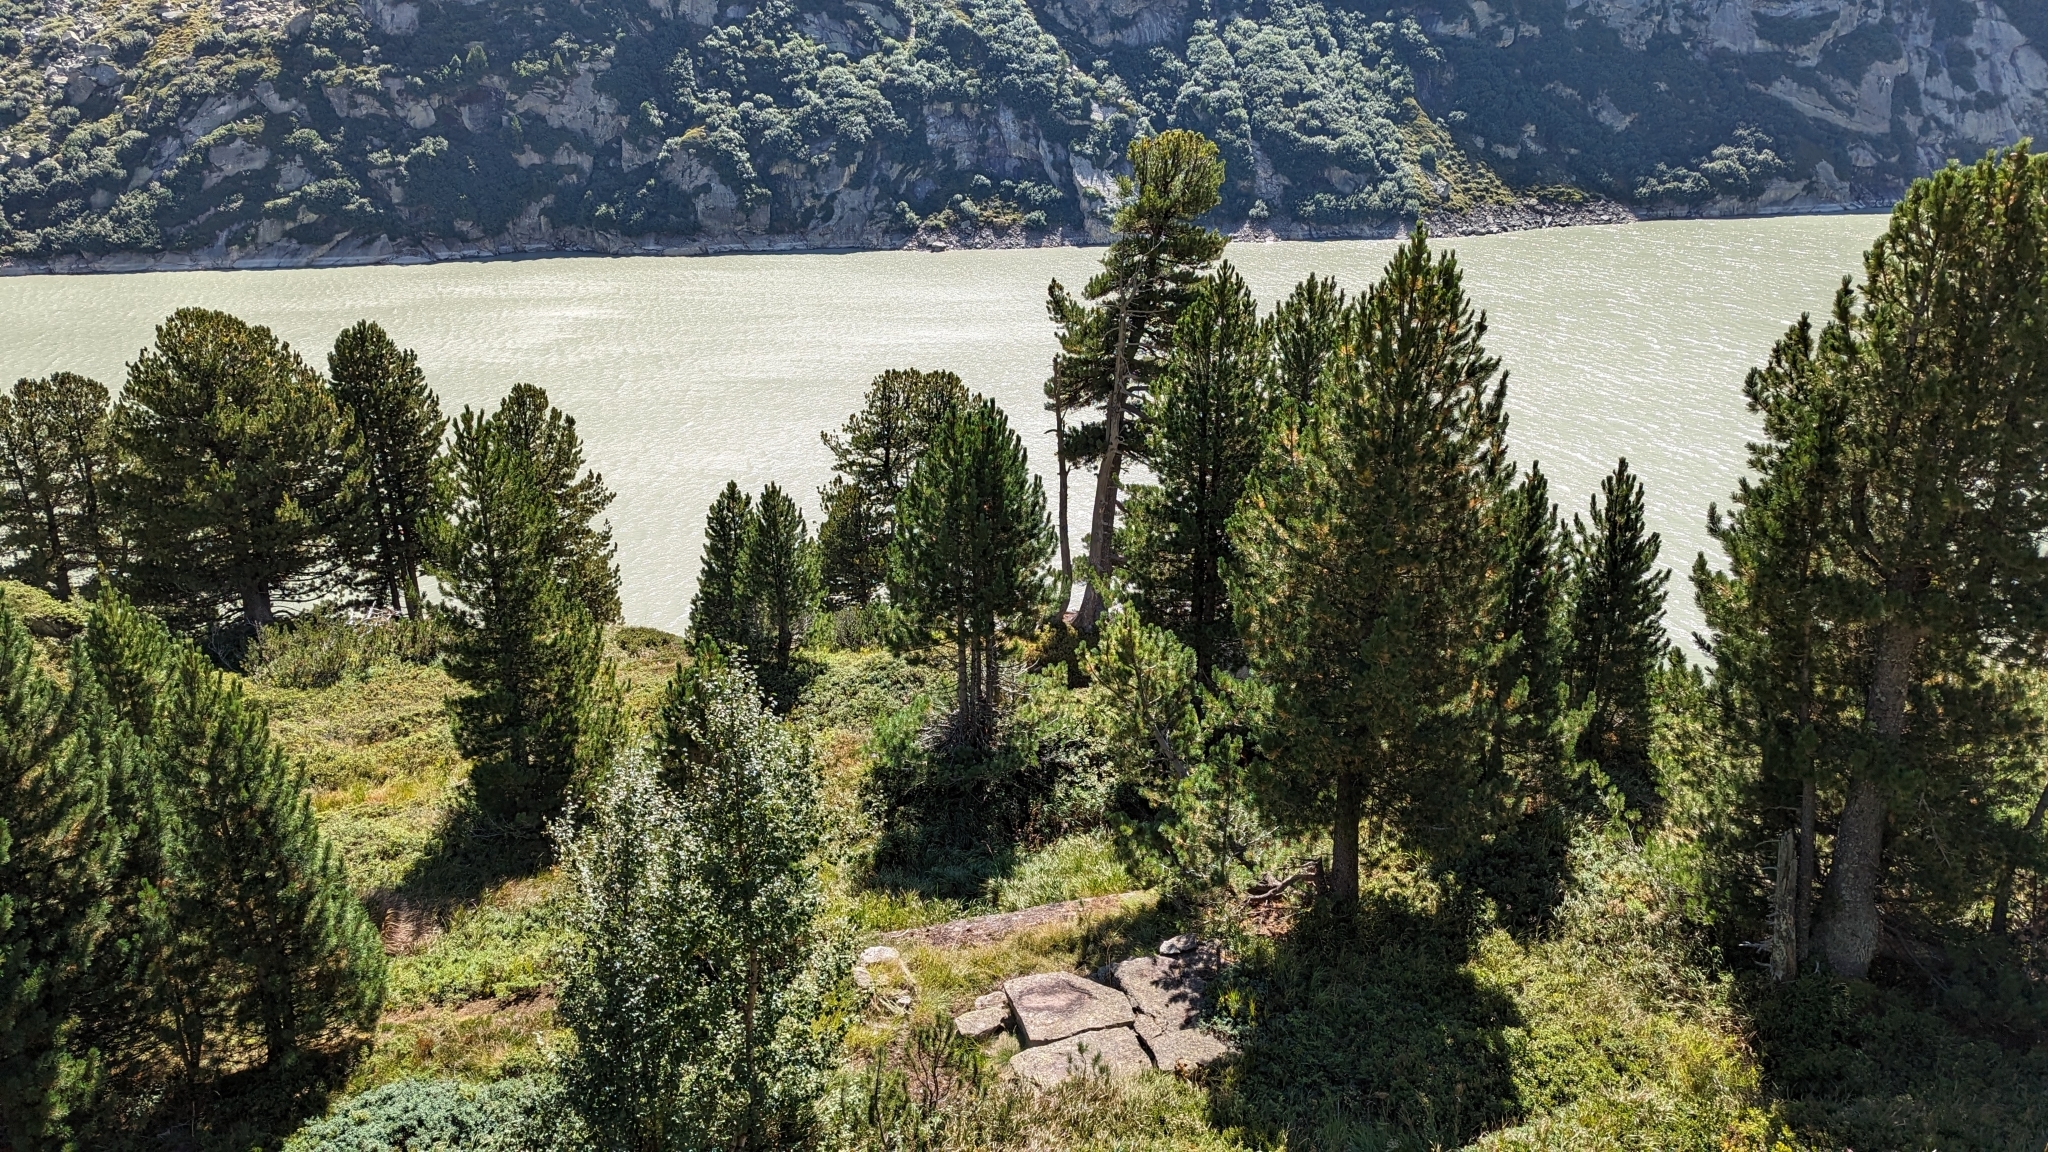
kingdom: Plantae
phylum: Tracheophyta
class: Pinopsida
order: Pinales
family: Cupressaceae
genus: Juniperus
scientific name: Juniperus communis
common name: Common juniper
